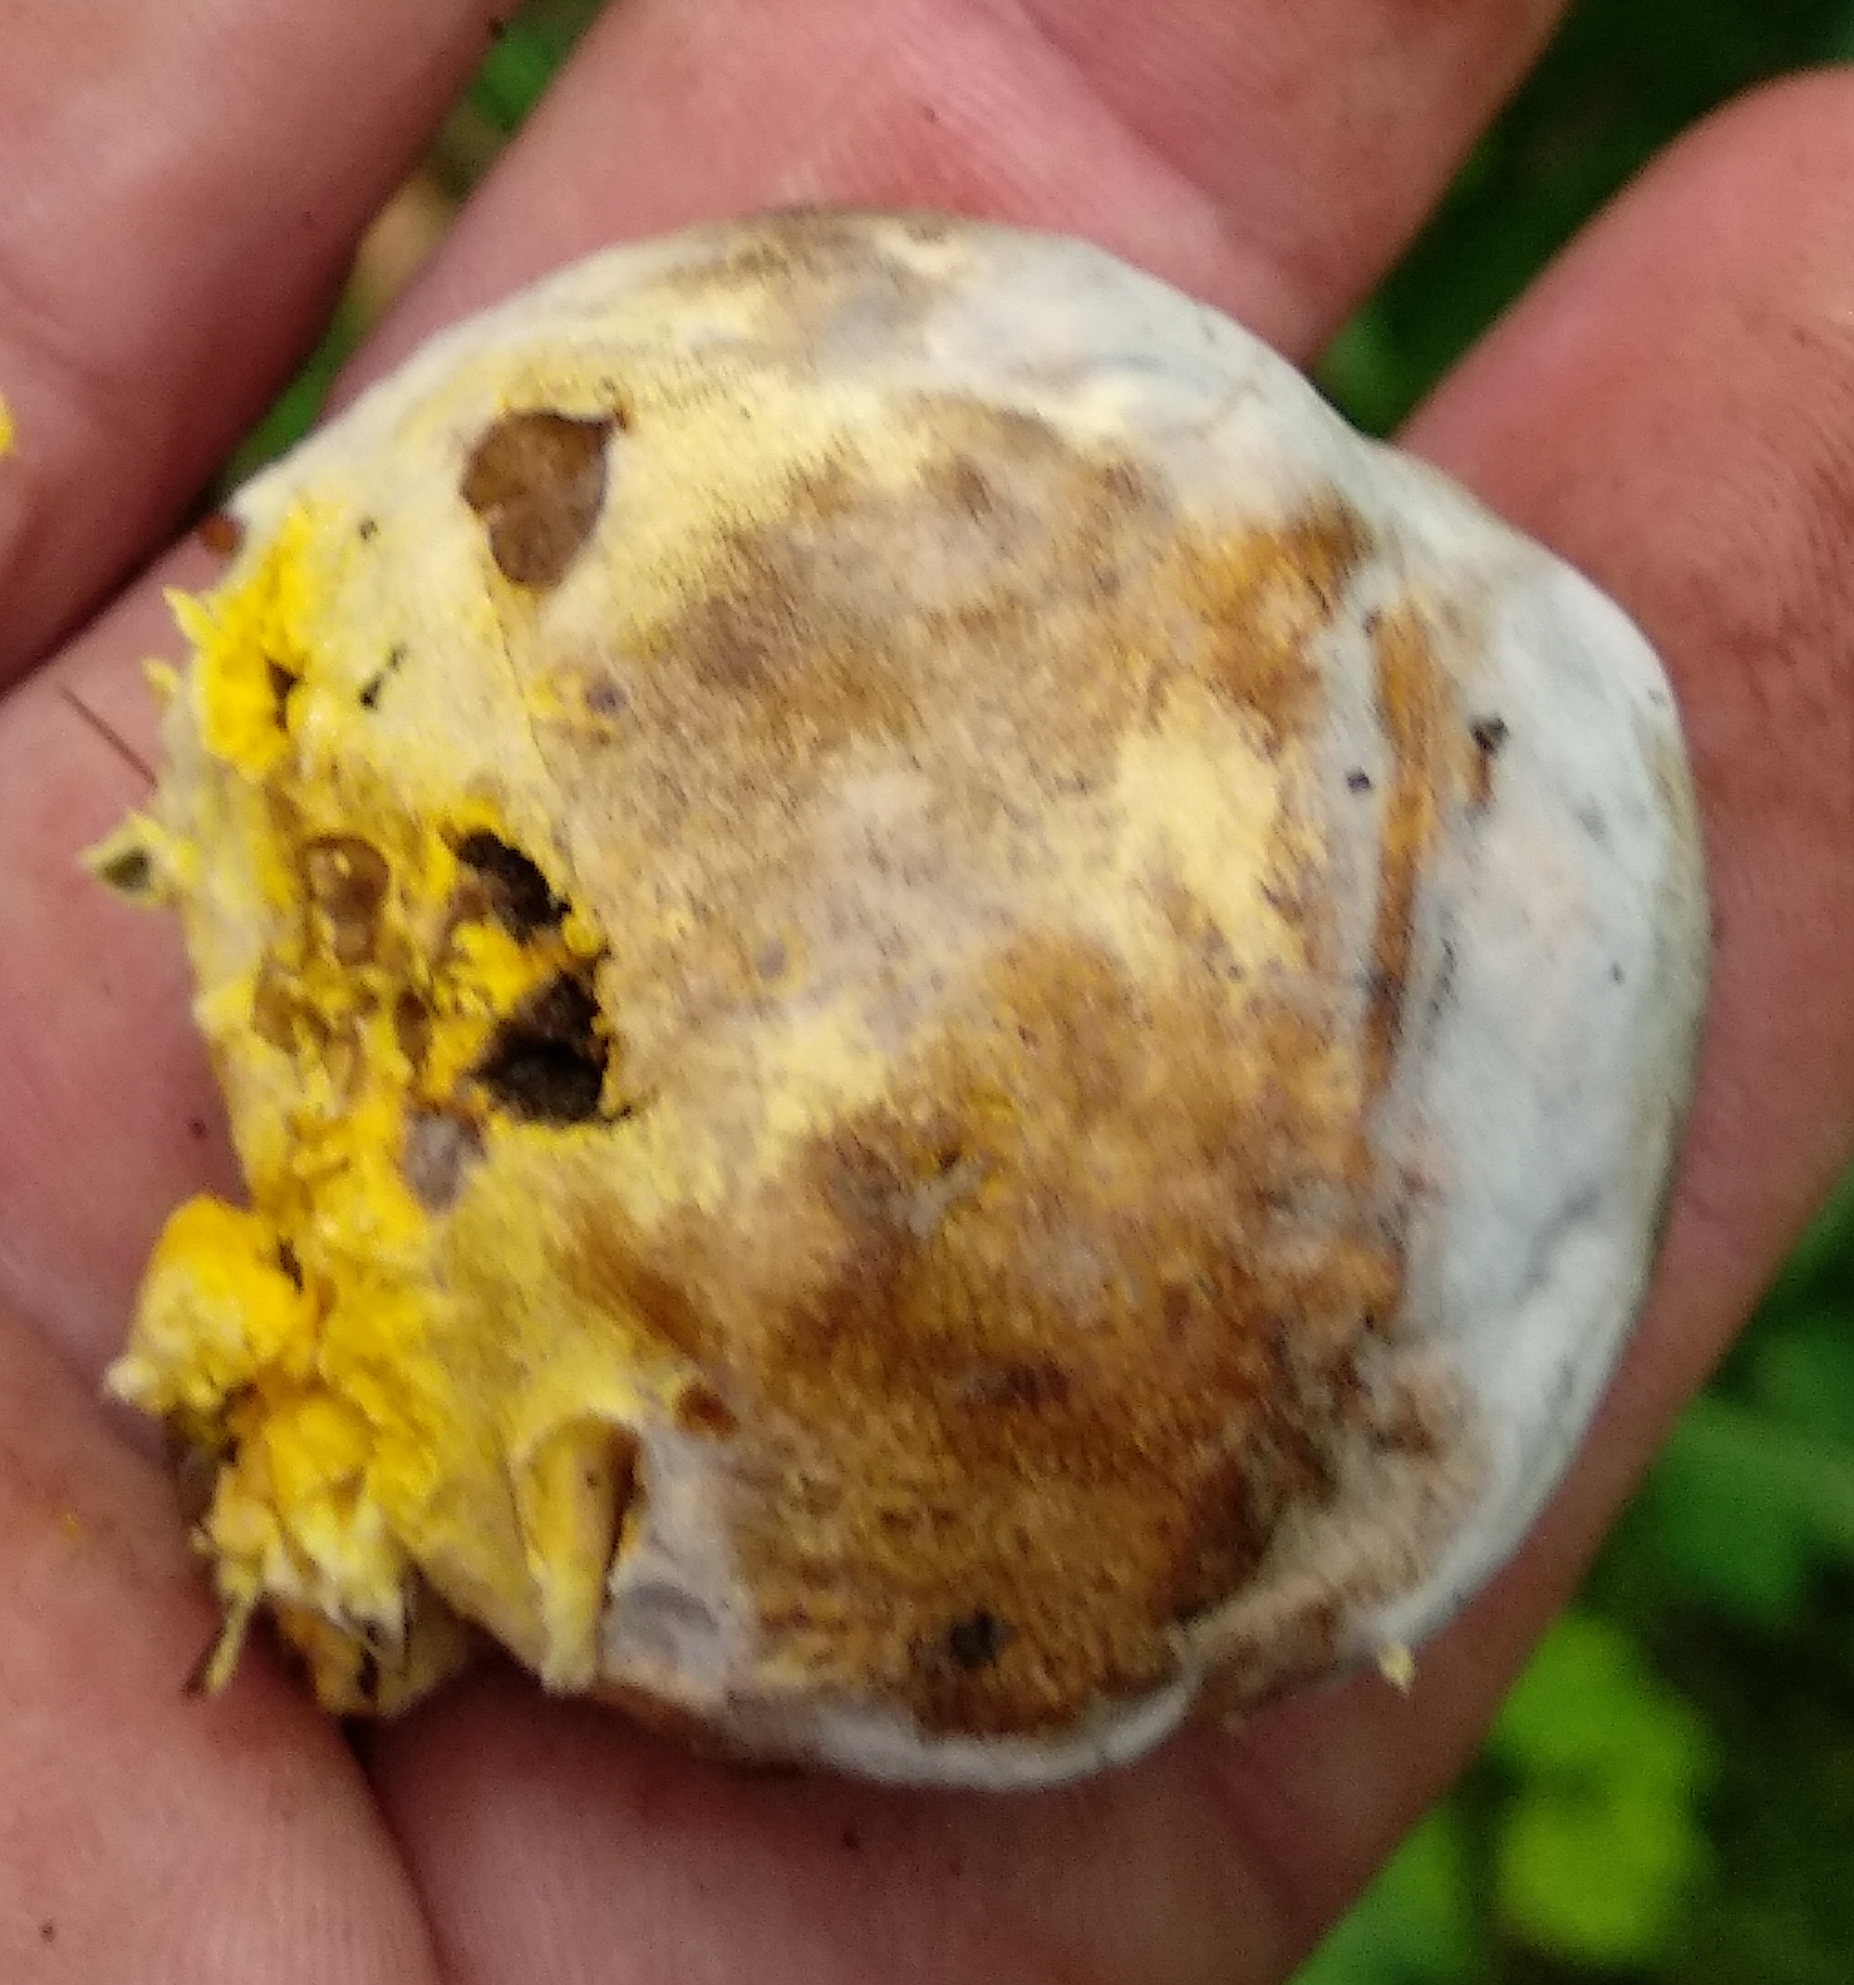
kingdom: Fungi
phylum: Ascomycota
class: Sordariomycetes
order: Hypocreales
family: Hypocreaceae
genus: Hypomyces
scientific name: Hypomyces chrysospermus
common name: Bolete mould
